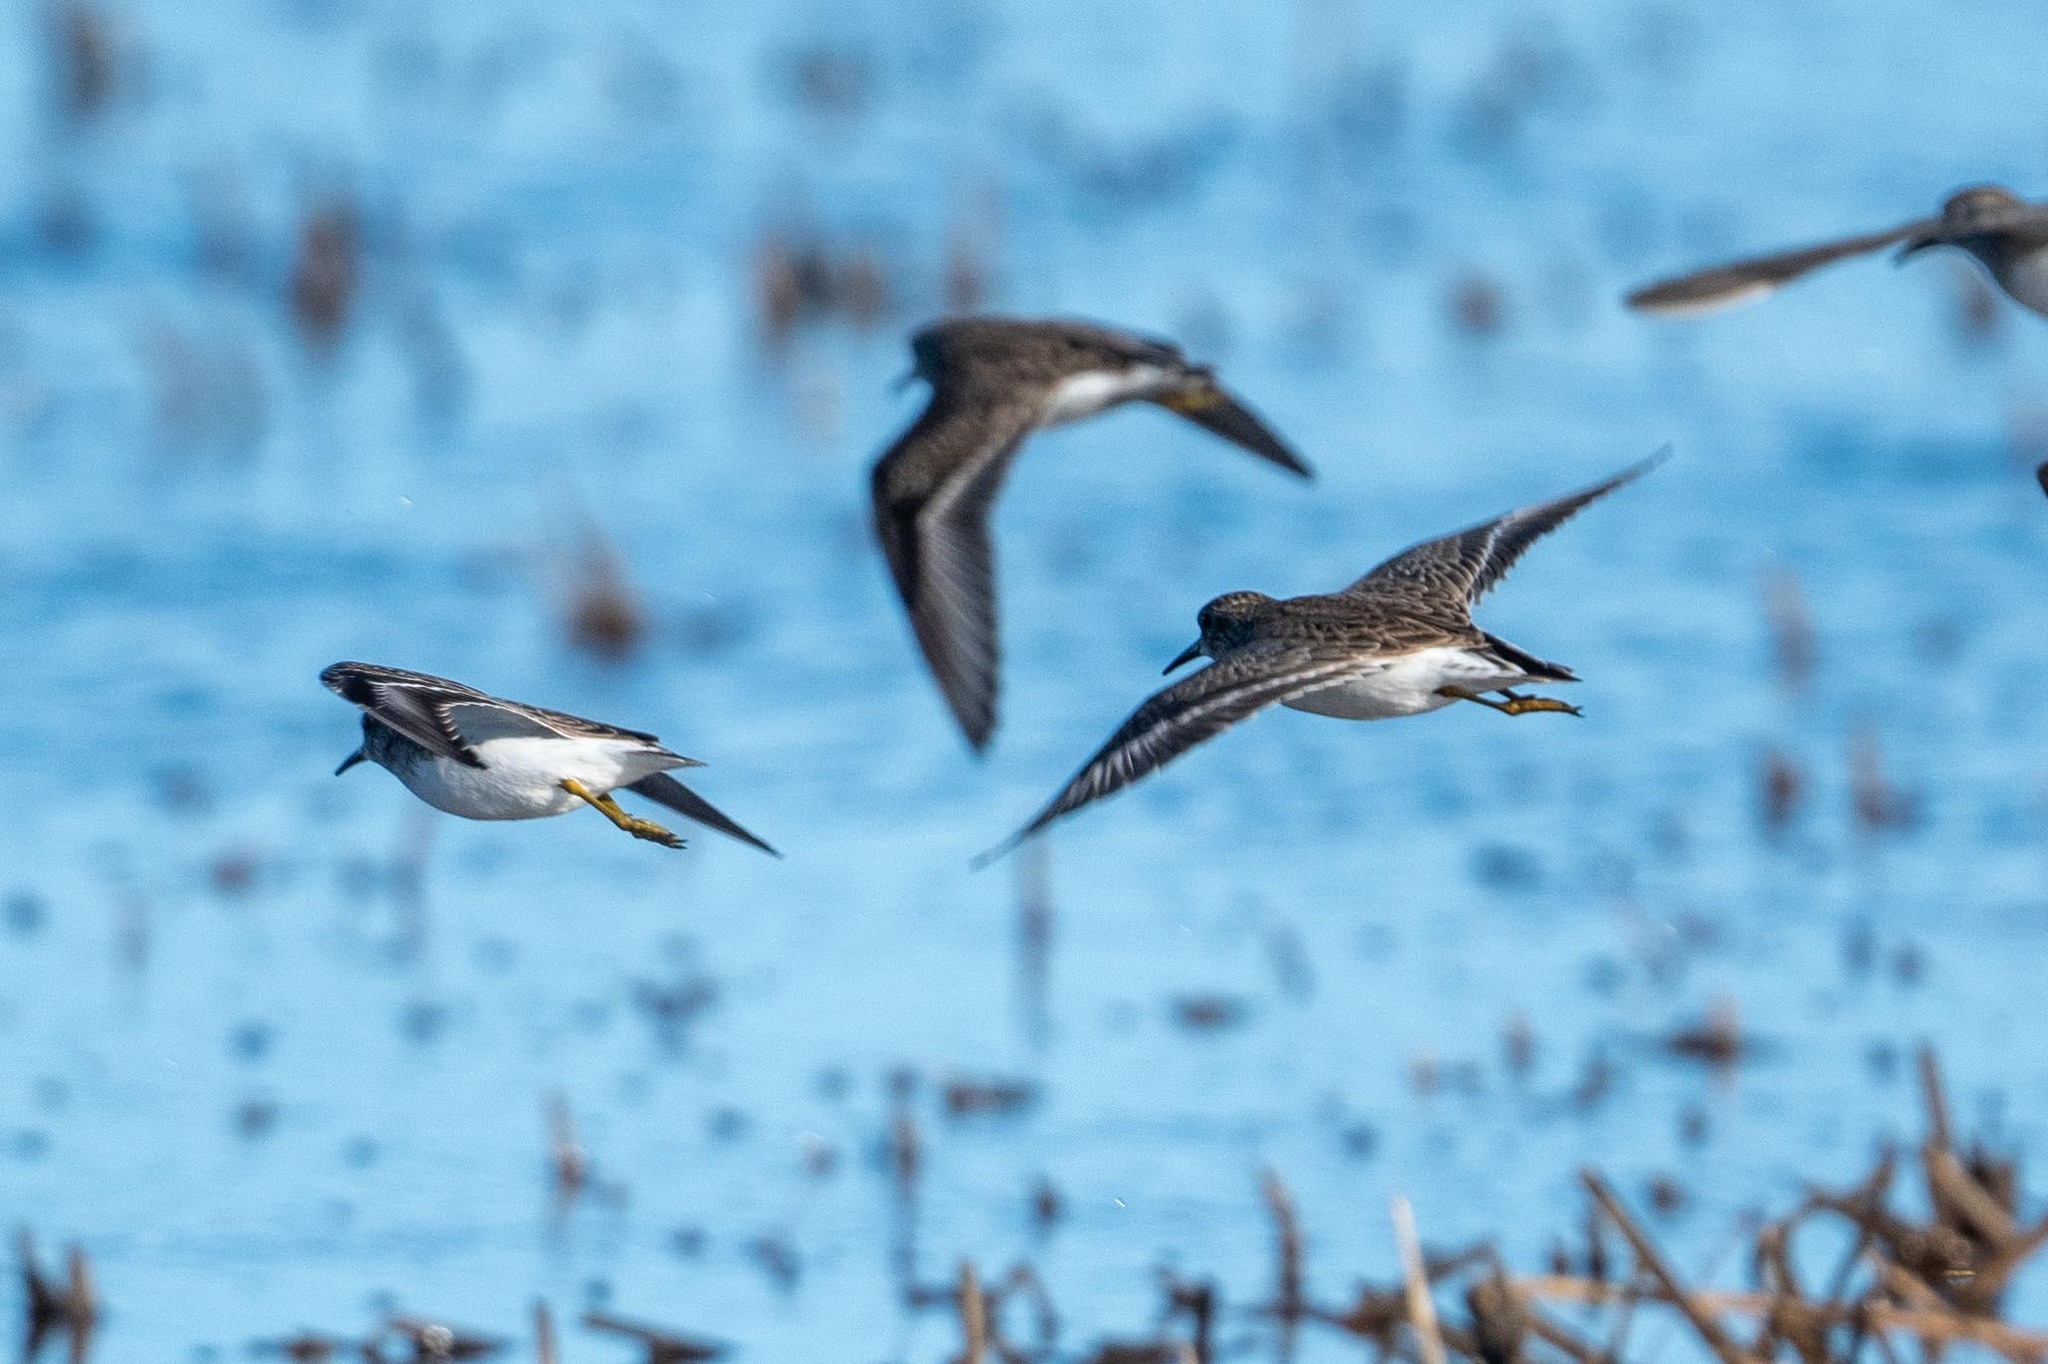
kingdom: Animalia
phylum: Chordata
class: Aves
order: Charadriiformes
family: Scolopacidae
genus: Calidris
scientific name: Calidris minutilla
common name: Least sandpiper
